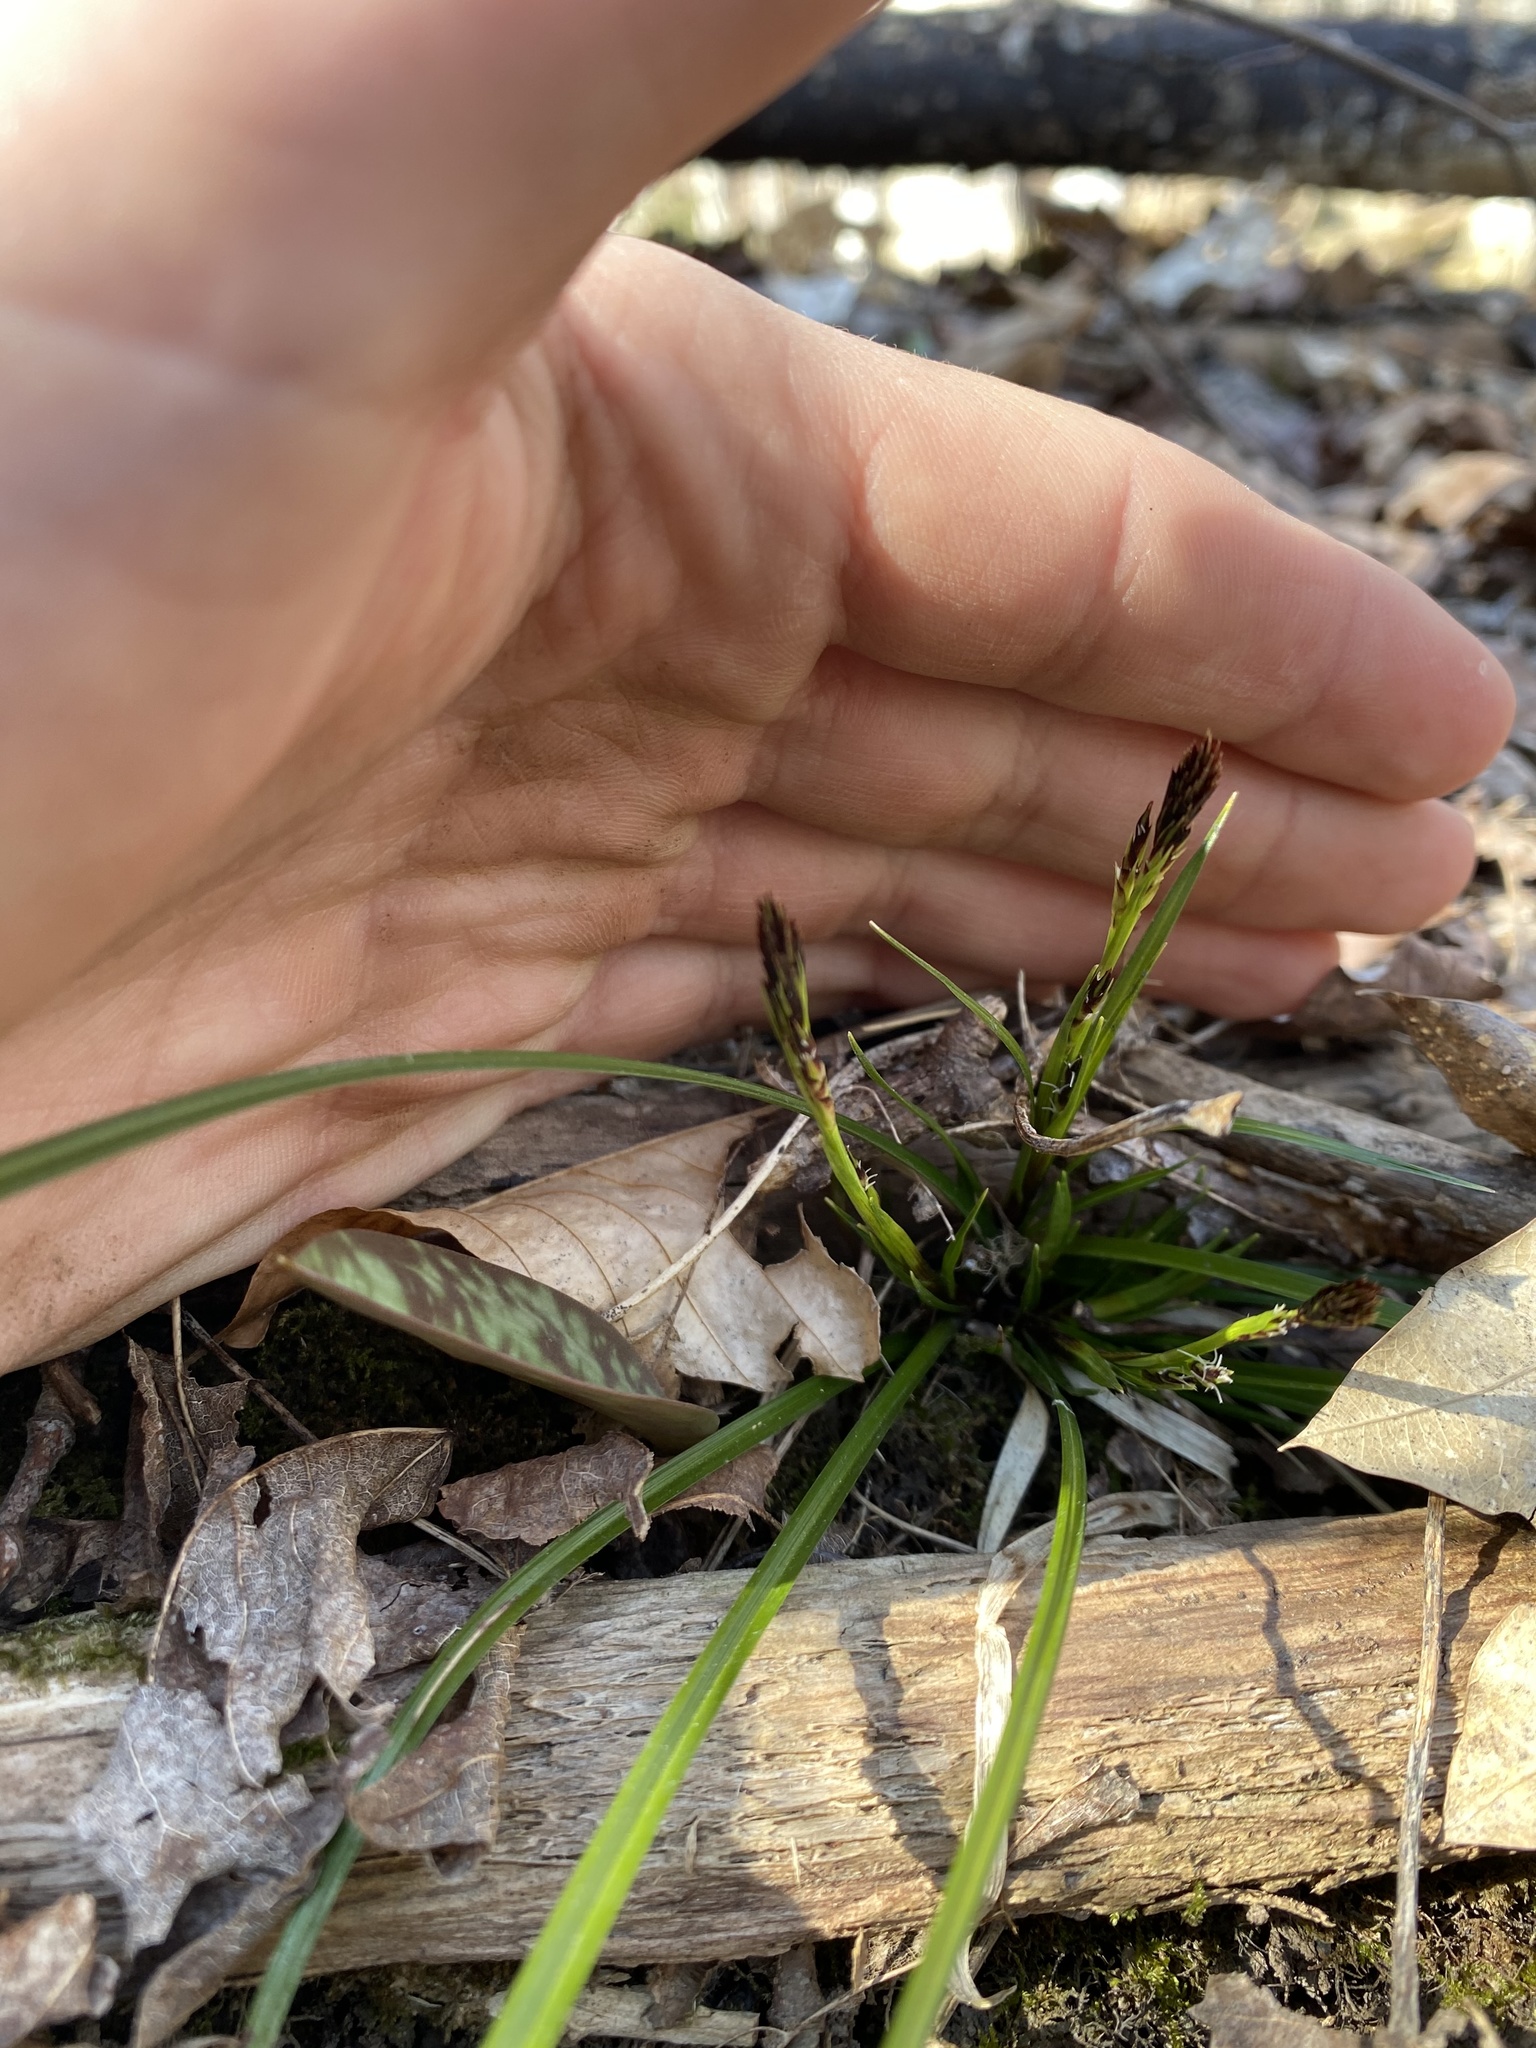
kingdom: Plantae
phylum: Tracheophyta
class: Liliopsida
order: Poales
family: Cyperaceae
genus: Carex
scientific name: Carex pedunculata
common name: Pedunculate sedge
